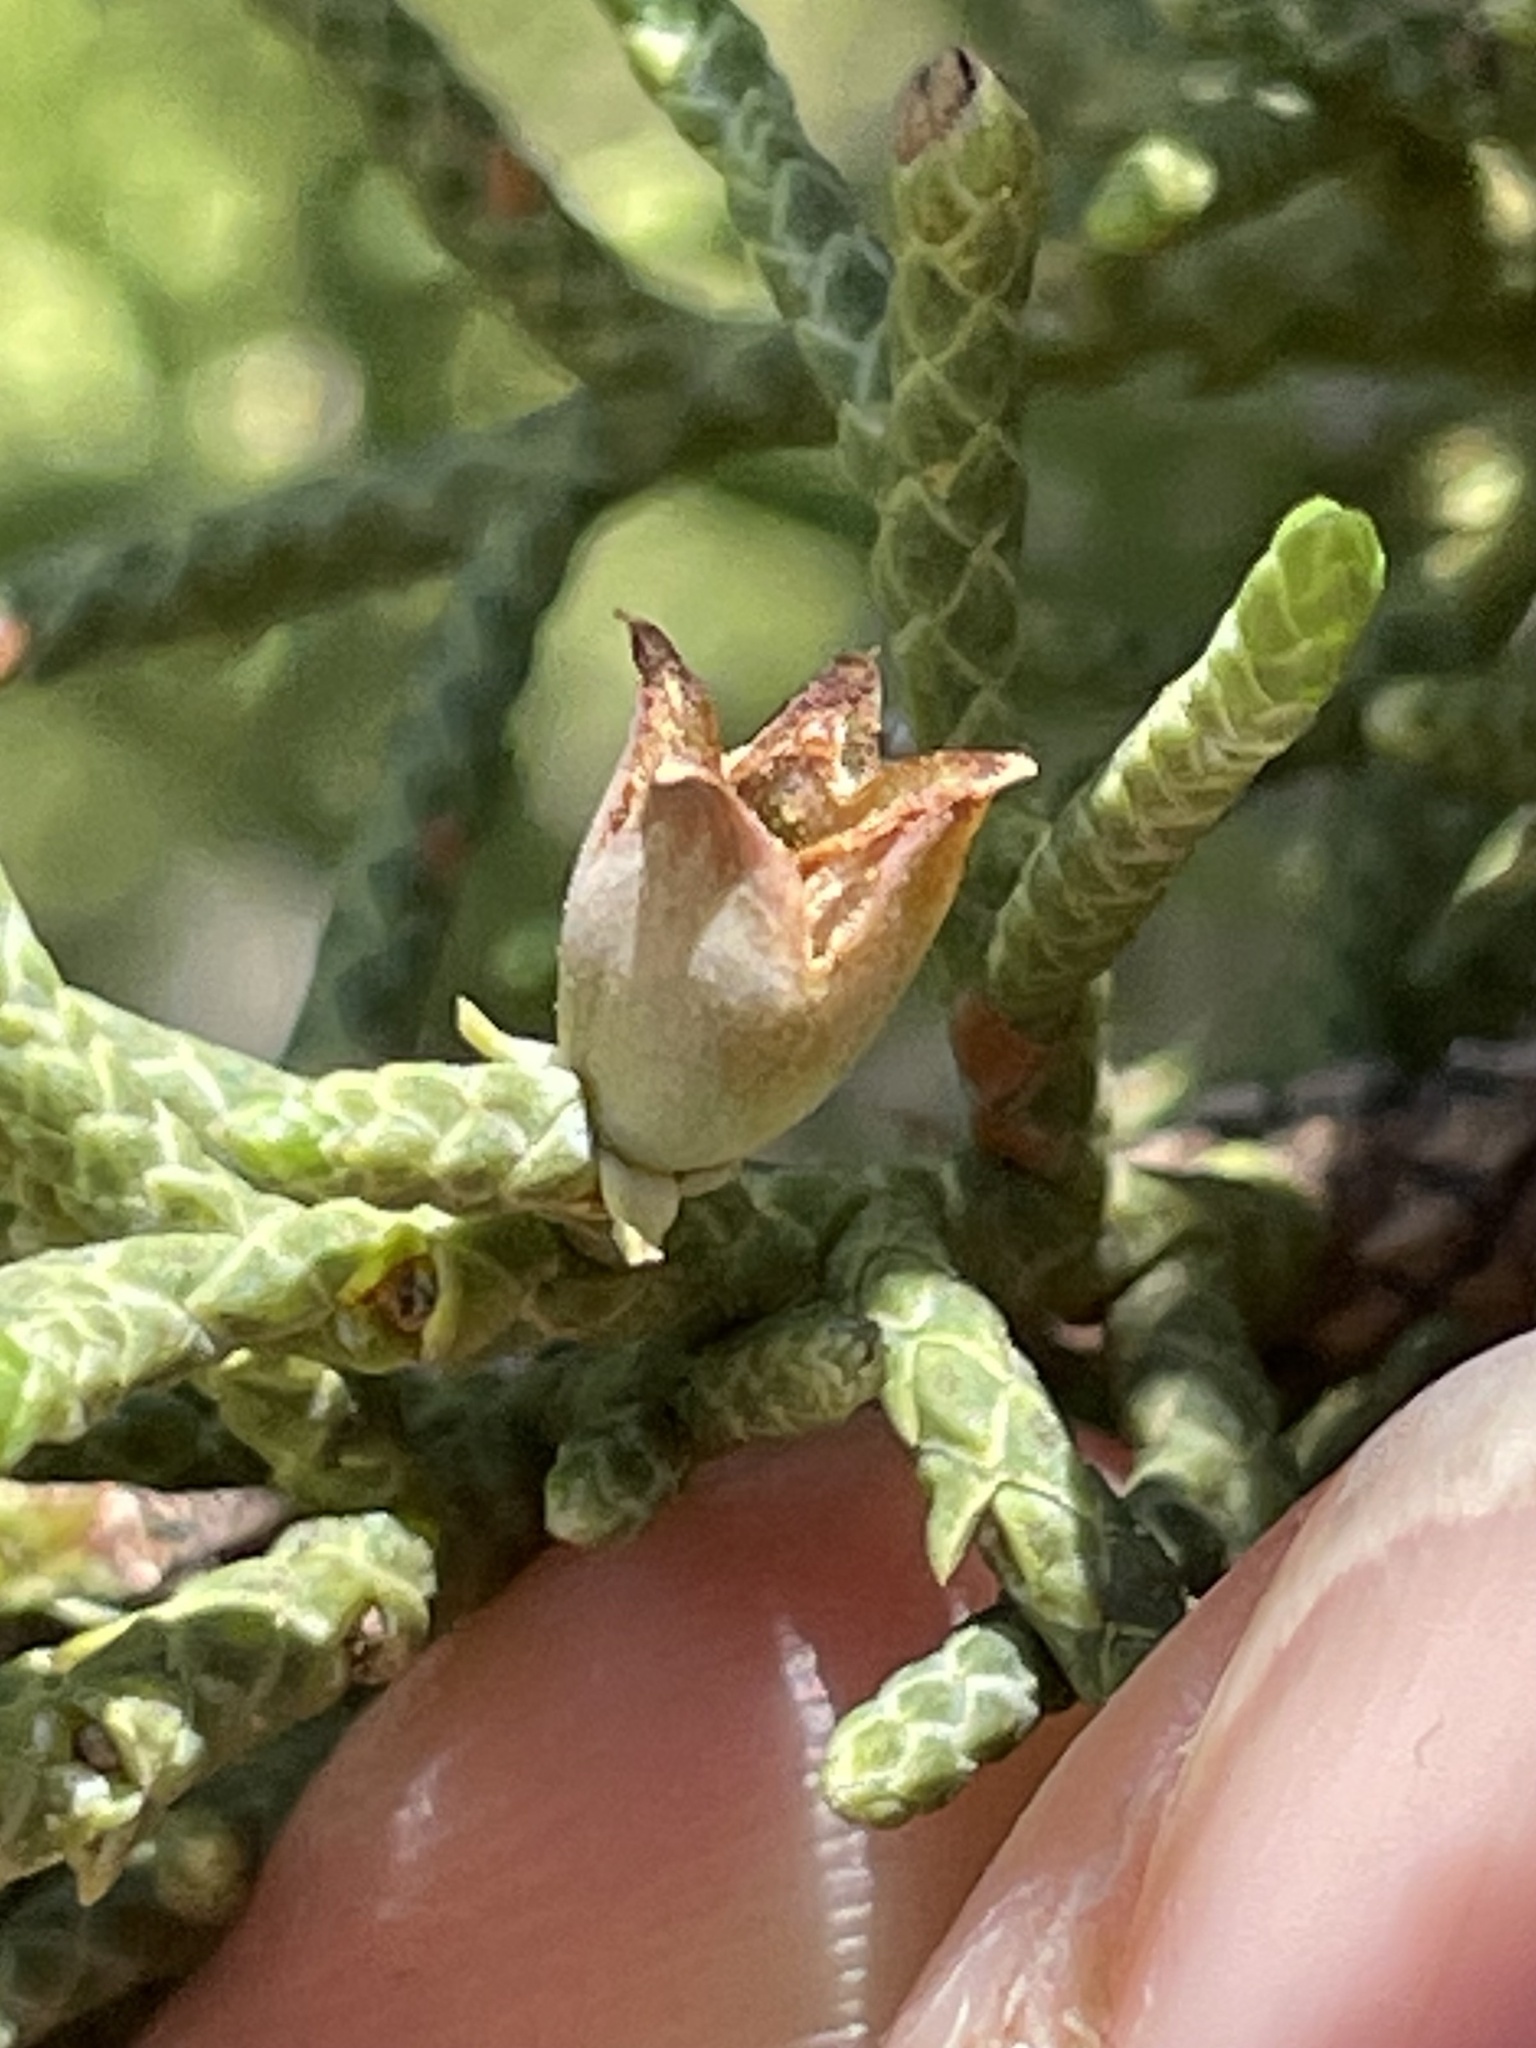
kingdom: Animalia
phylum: Arthropoda
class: Insecta
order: Diptera
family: Cecidomyiidae
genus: Walshomyia
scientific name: Walshomyia juniperina
